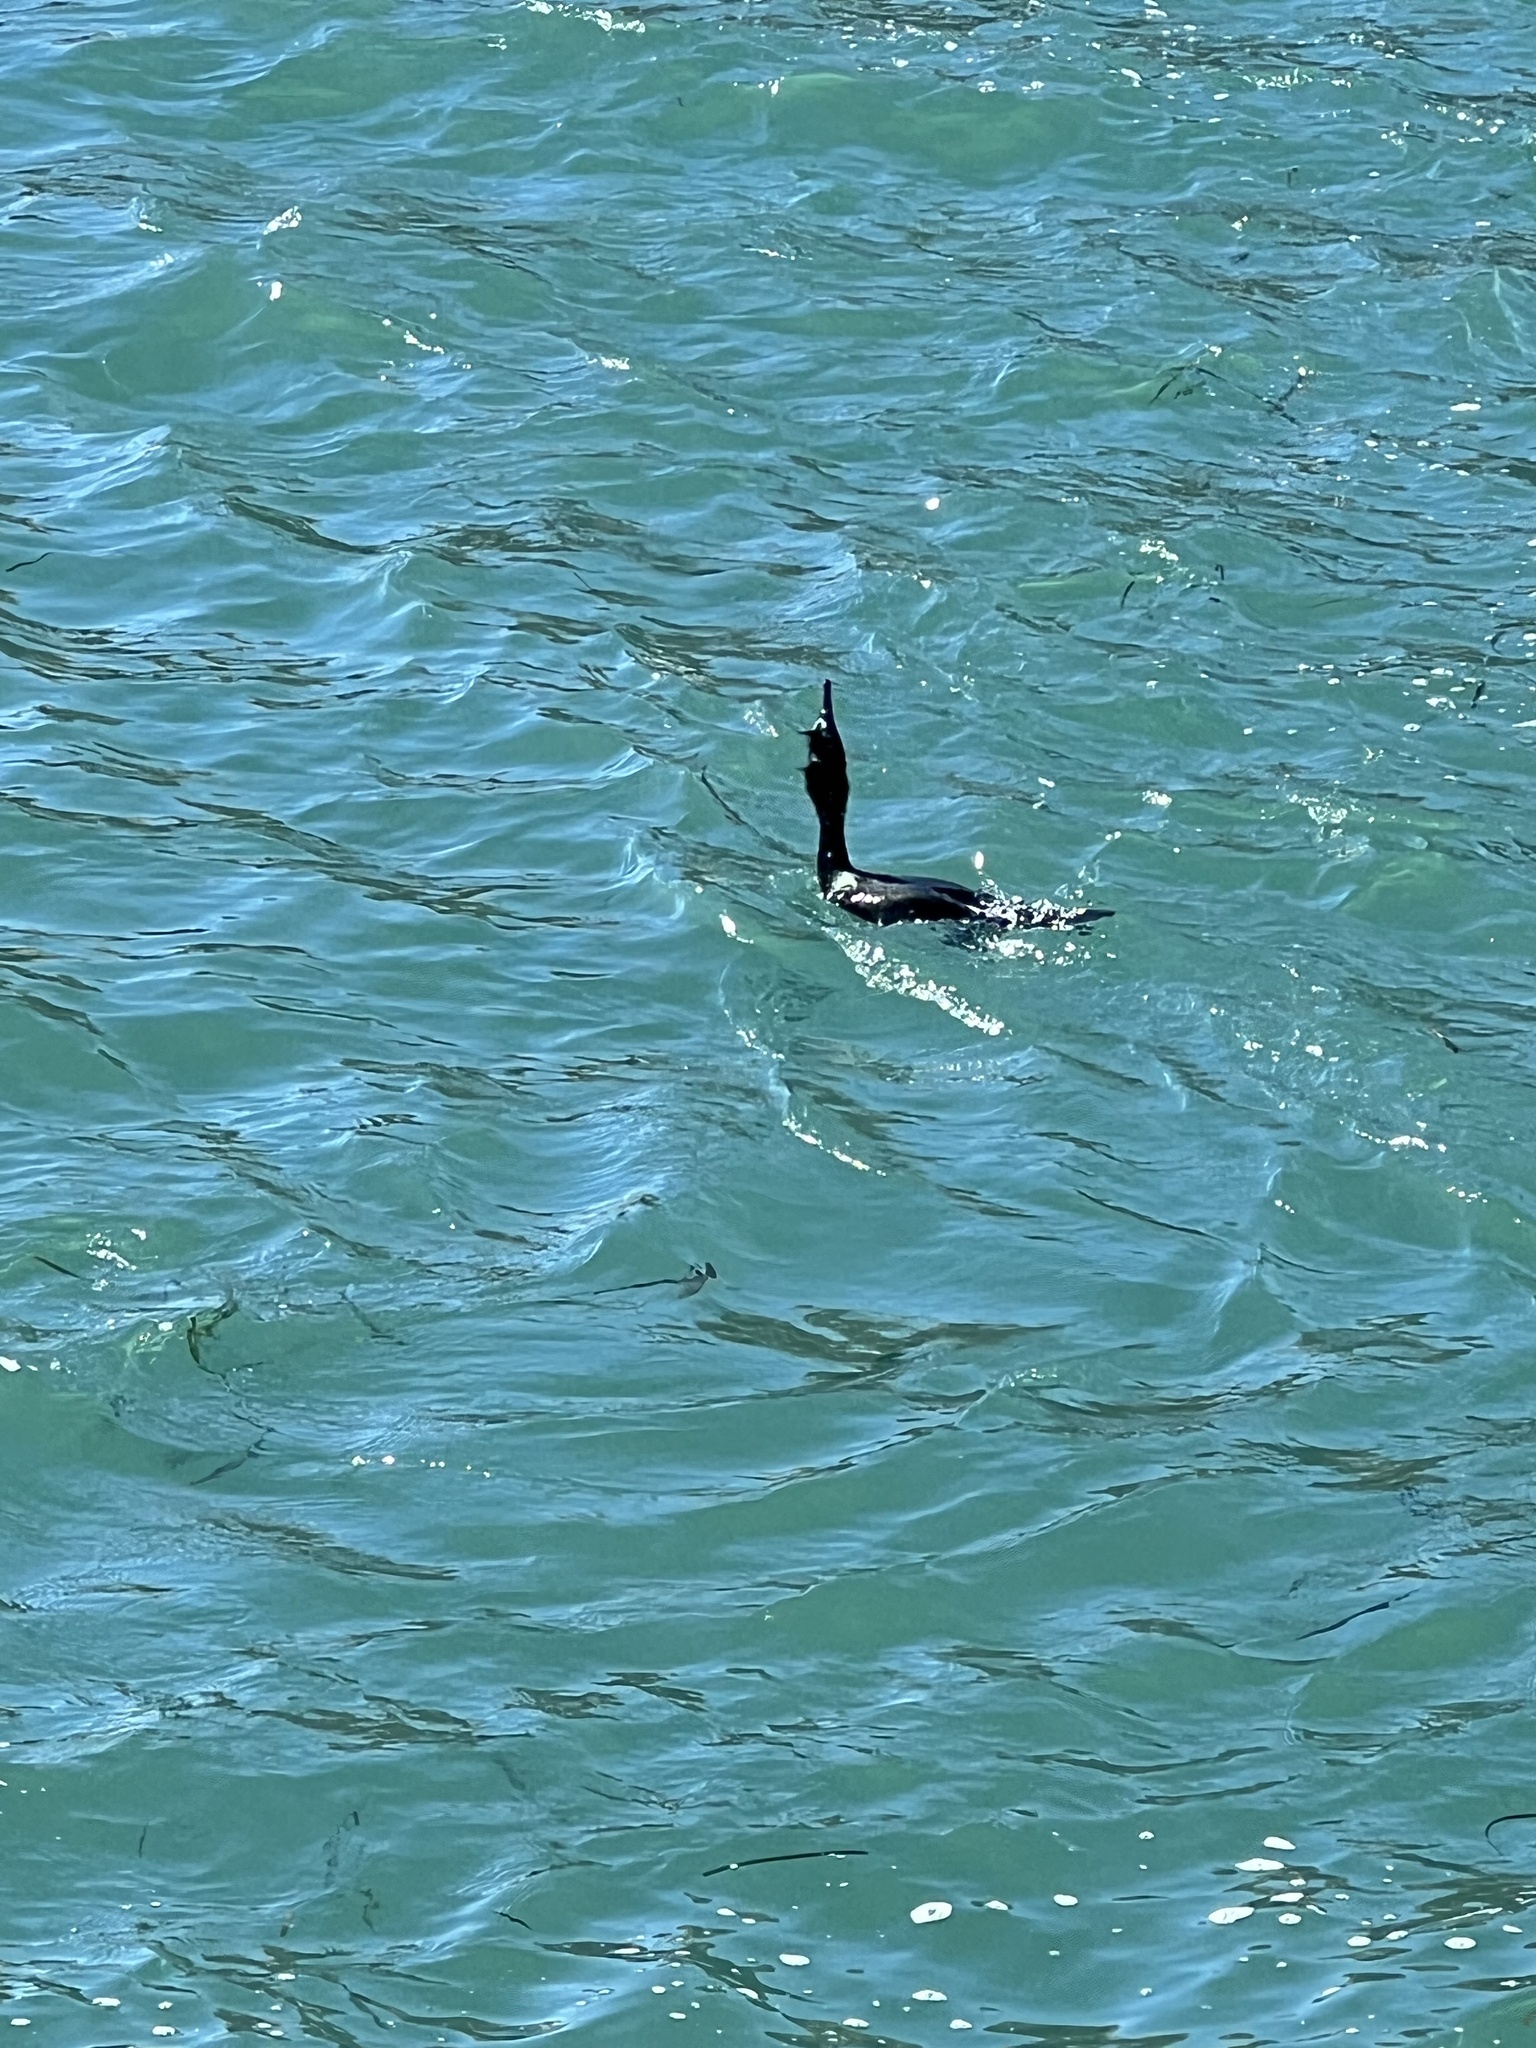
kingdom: Animalia
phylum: Chordata
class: Aves
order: Suliformes
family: Phalacrocoracidae
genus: Phalacrocorax
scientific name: Phalacrocorax pelagicus
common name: Pelagic cormorant
